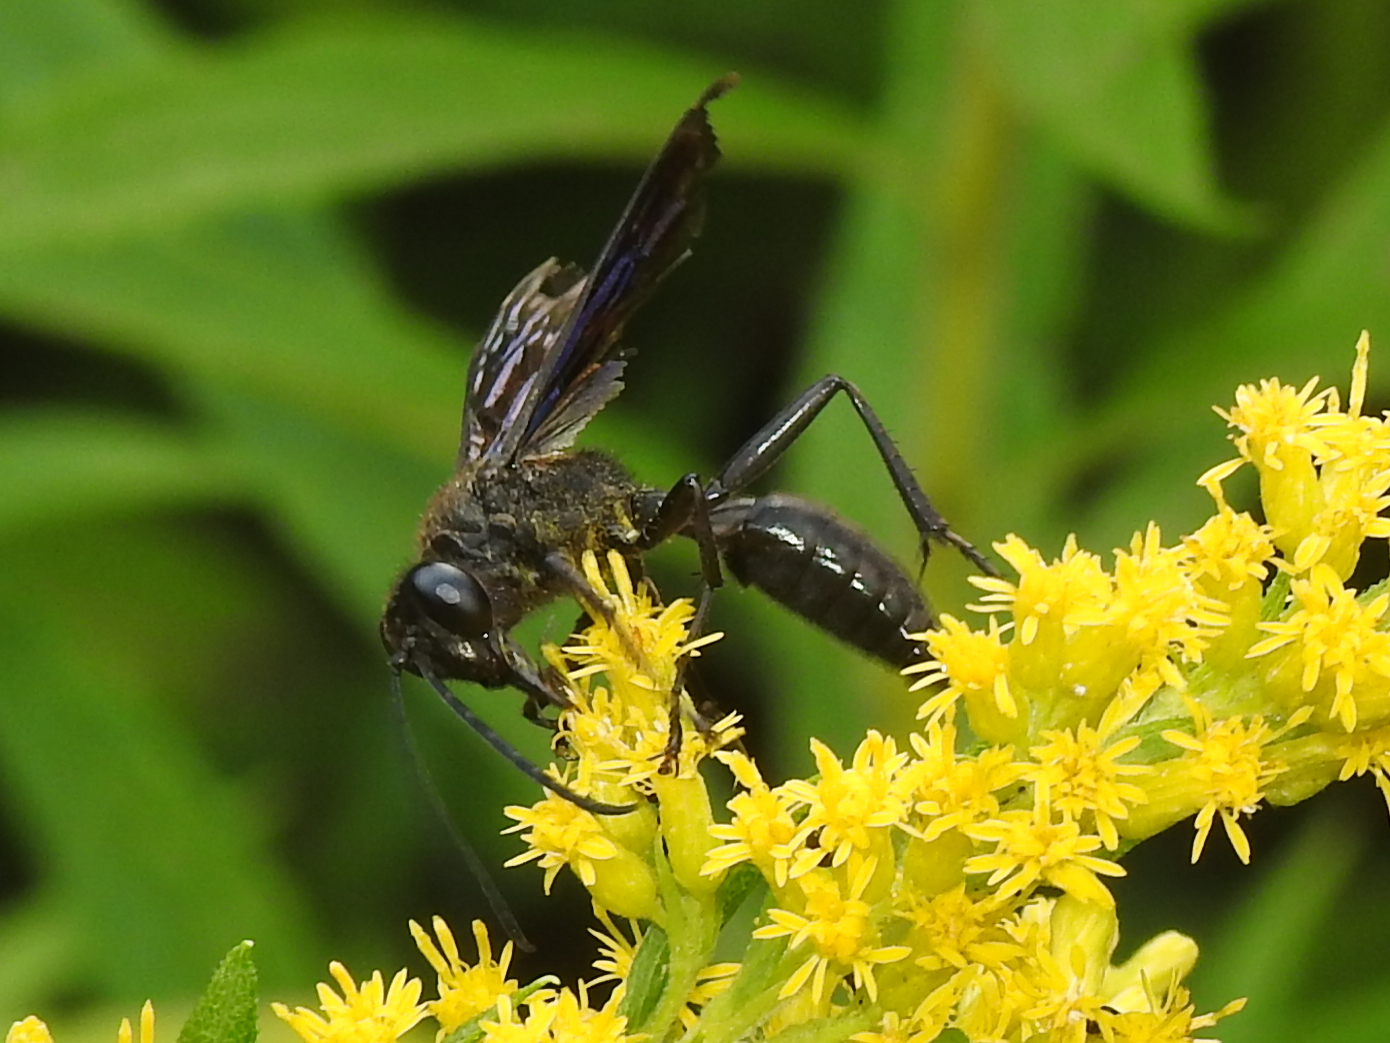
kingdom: Animalia
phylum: Arthropoda
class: Insecta
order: Hymenoptera
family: Sphecidae
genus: Sphex
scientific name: Sphex pensylvanicus
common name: Great black digger wasp
